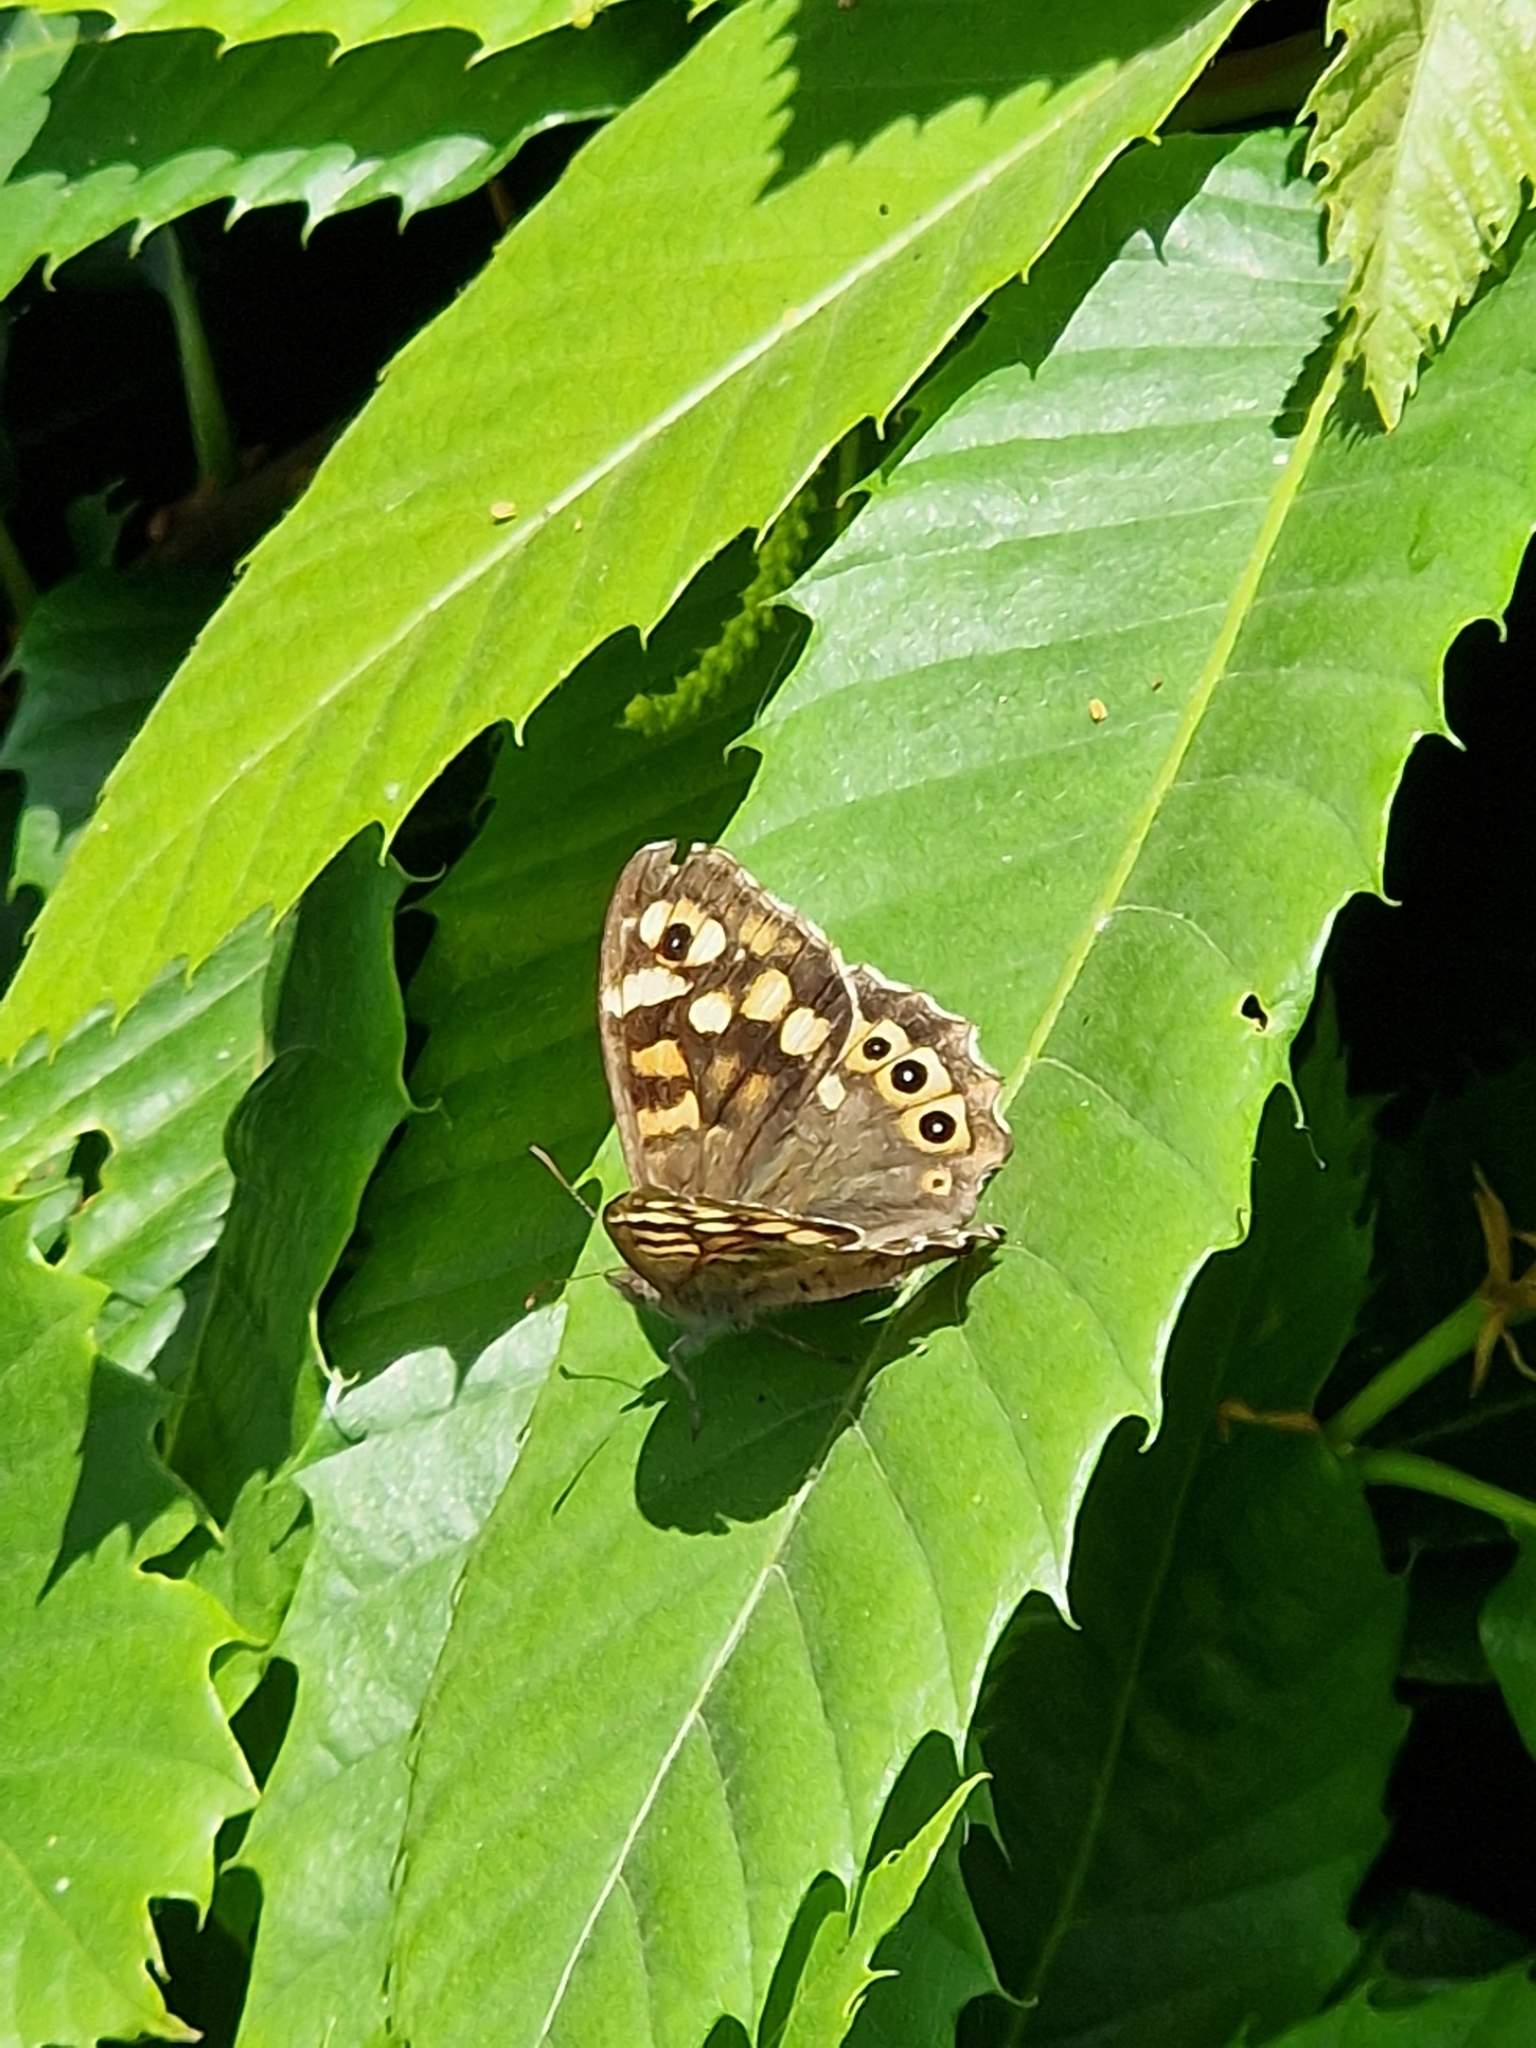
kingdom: Animalia
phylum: Arthropoda
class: Insecta
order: Lepidoptera
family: Nymphalidae
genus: Pararge
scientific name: Pararge aegeria
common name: Speckled wood
